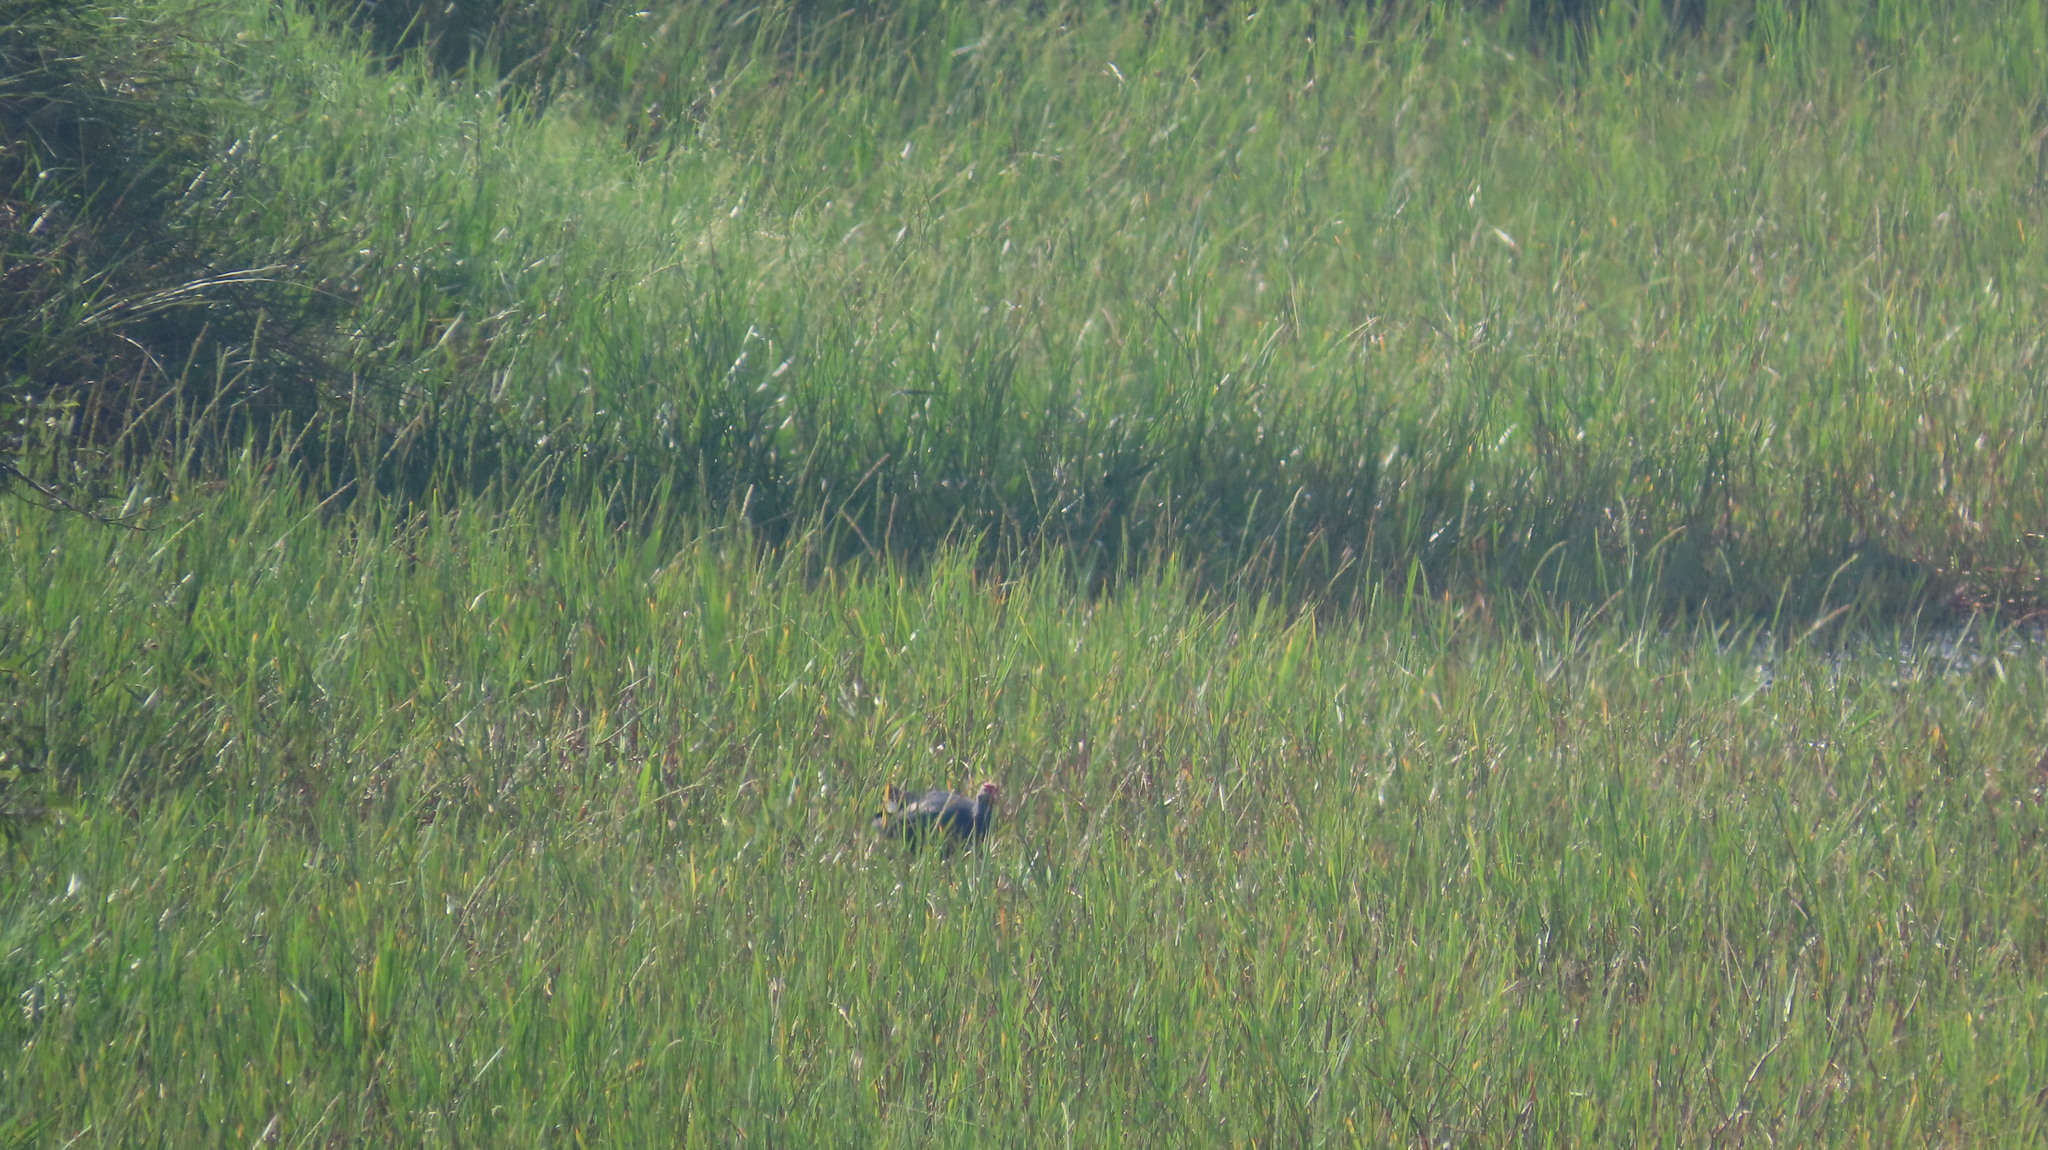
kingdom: Animalia
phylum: Chordata
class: Aves
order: Gruiformes
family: Rallidae
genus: Porphyrio
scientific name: Porphyrio porphyrio
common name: Purple swamphen
